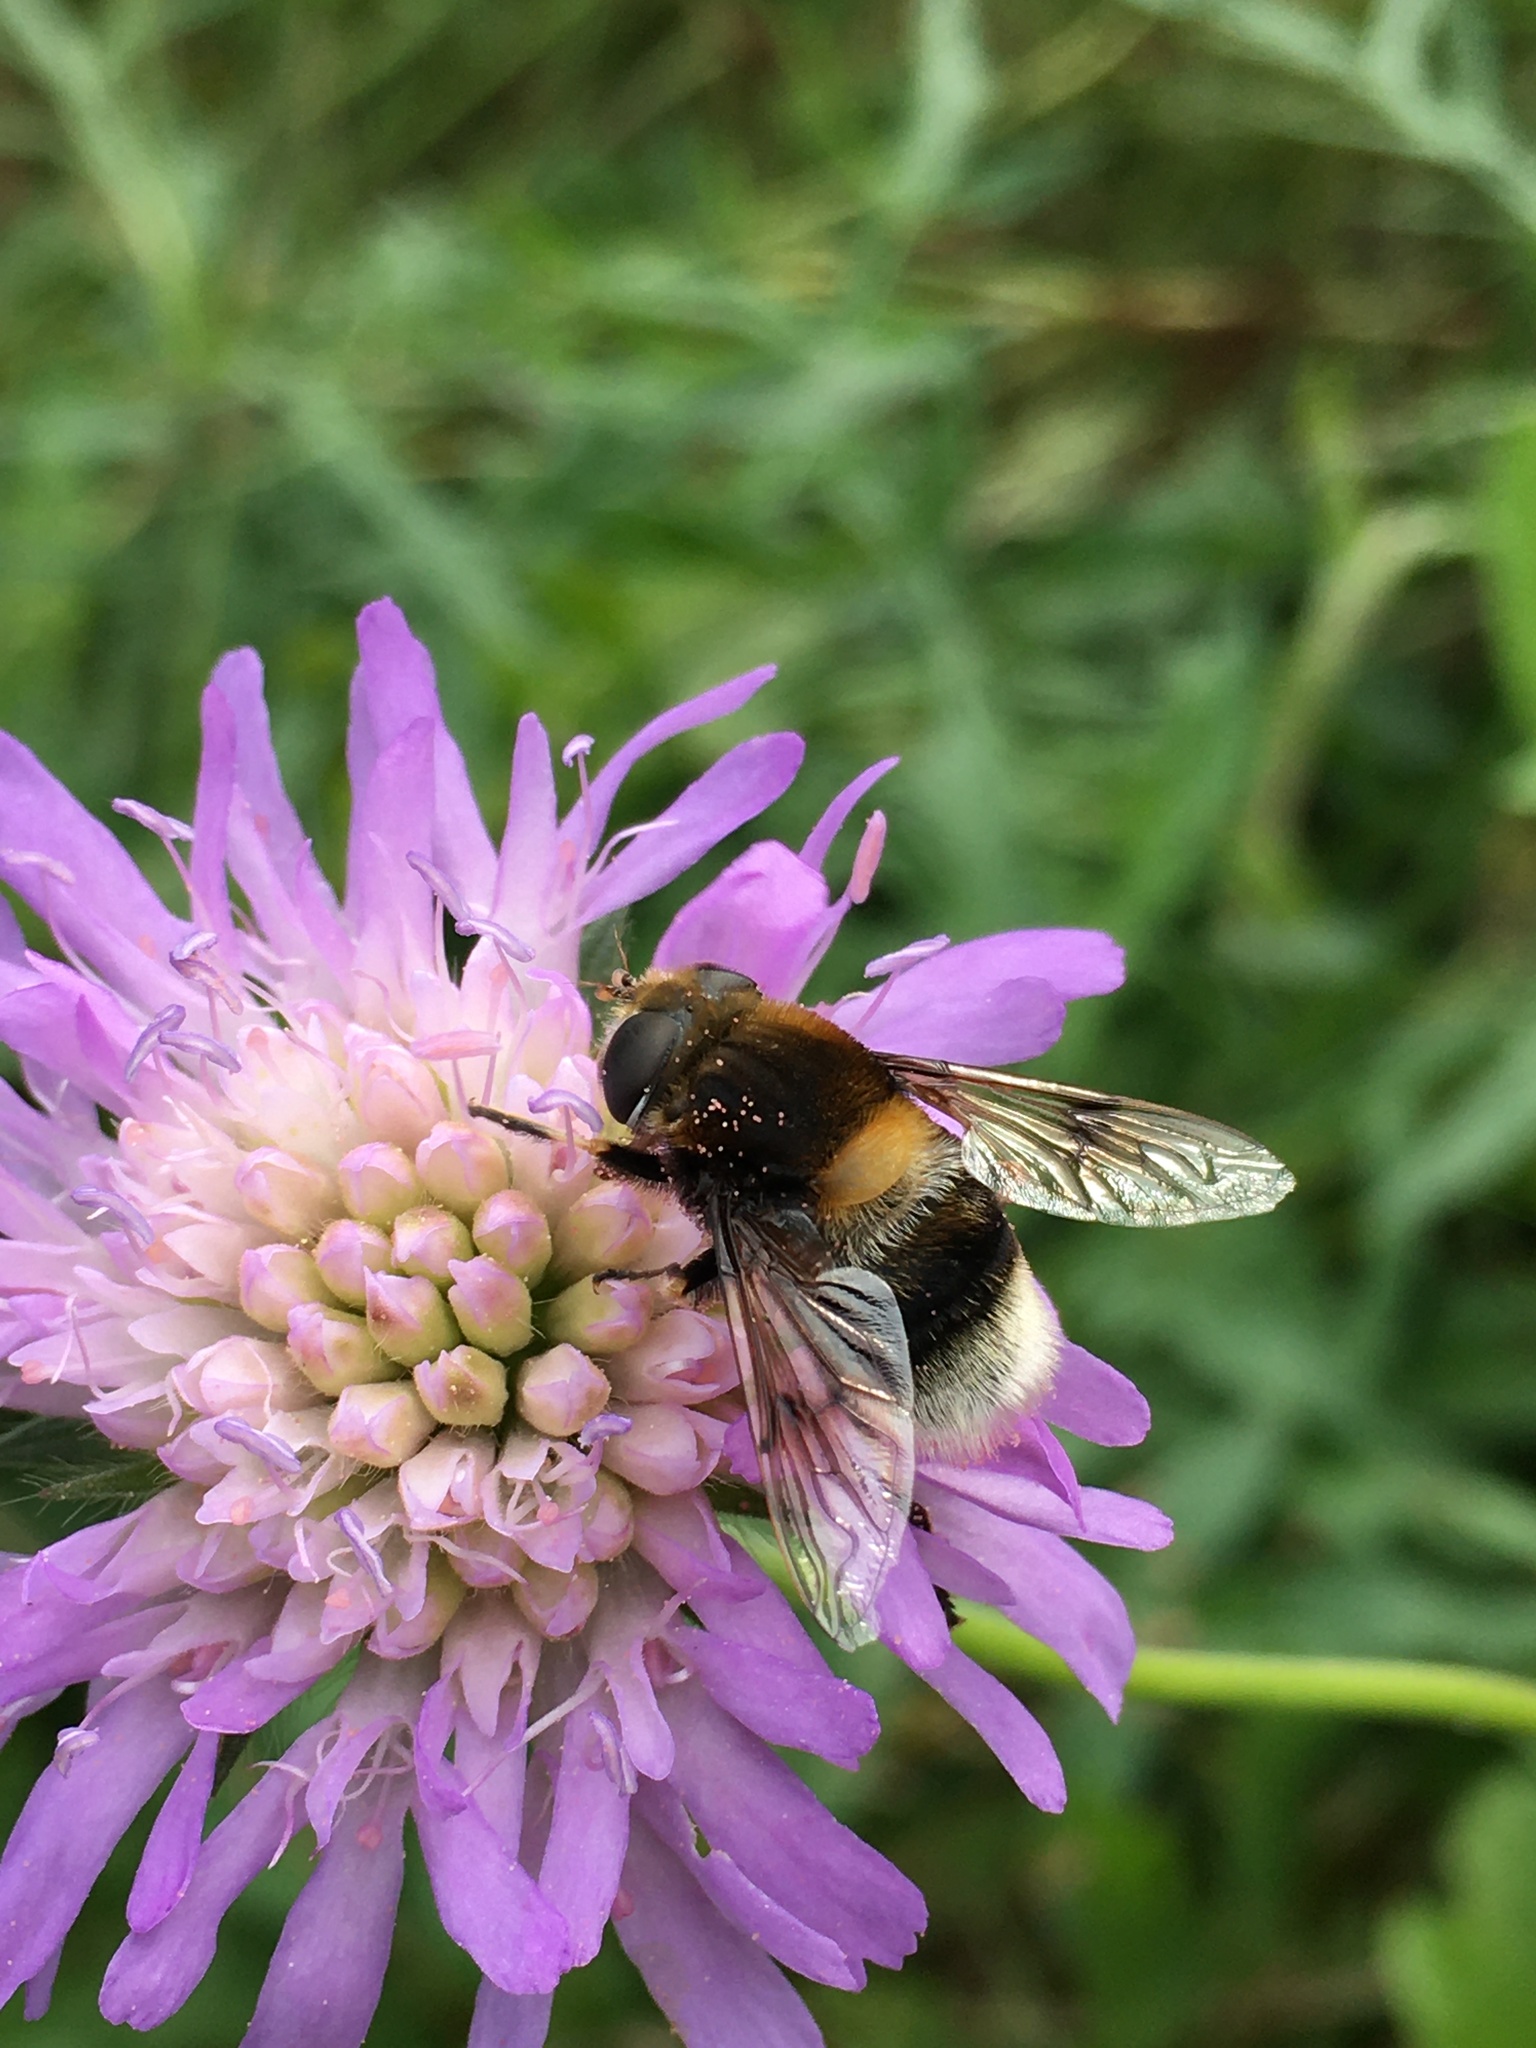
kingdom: Animalia
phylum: Arthropoda
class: Insecta
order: Diptera
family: Syrphidae
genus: Eristalis
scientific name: Eristalis intricaria
